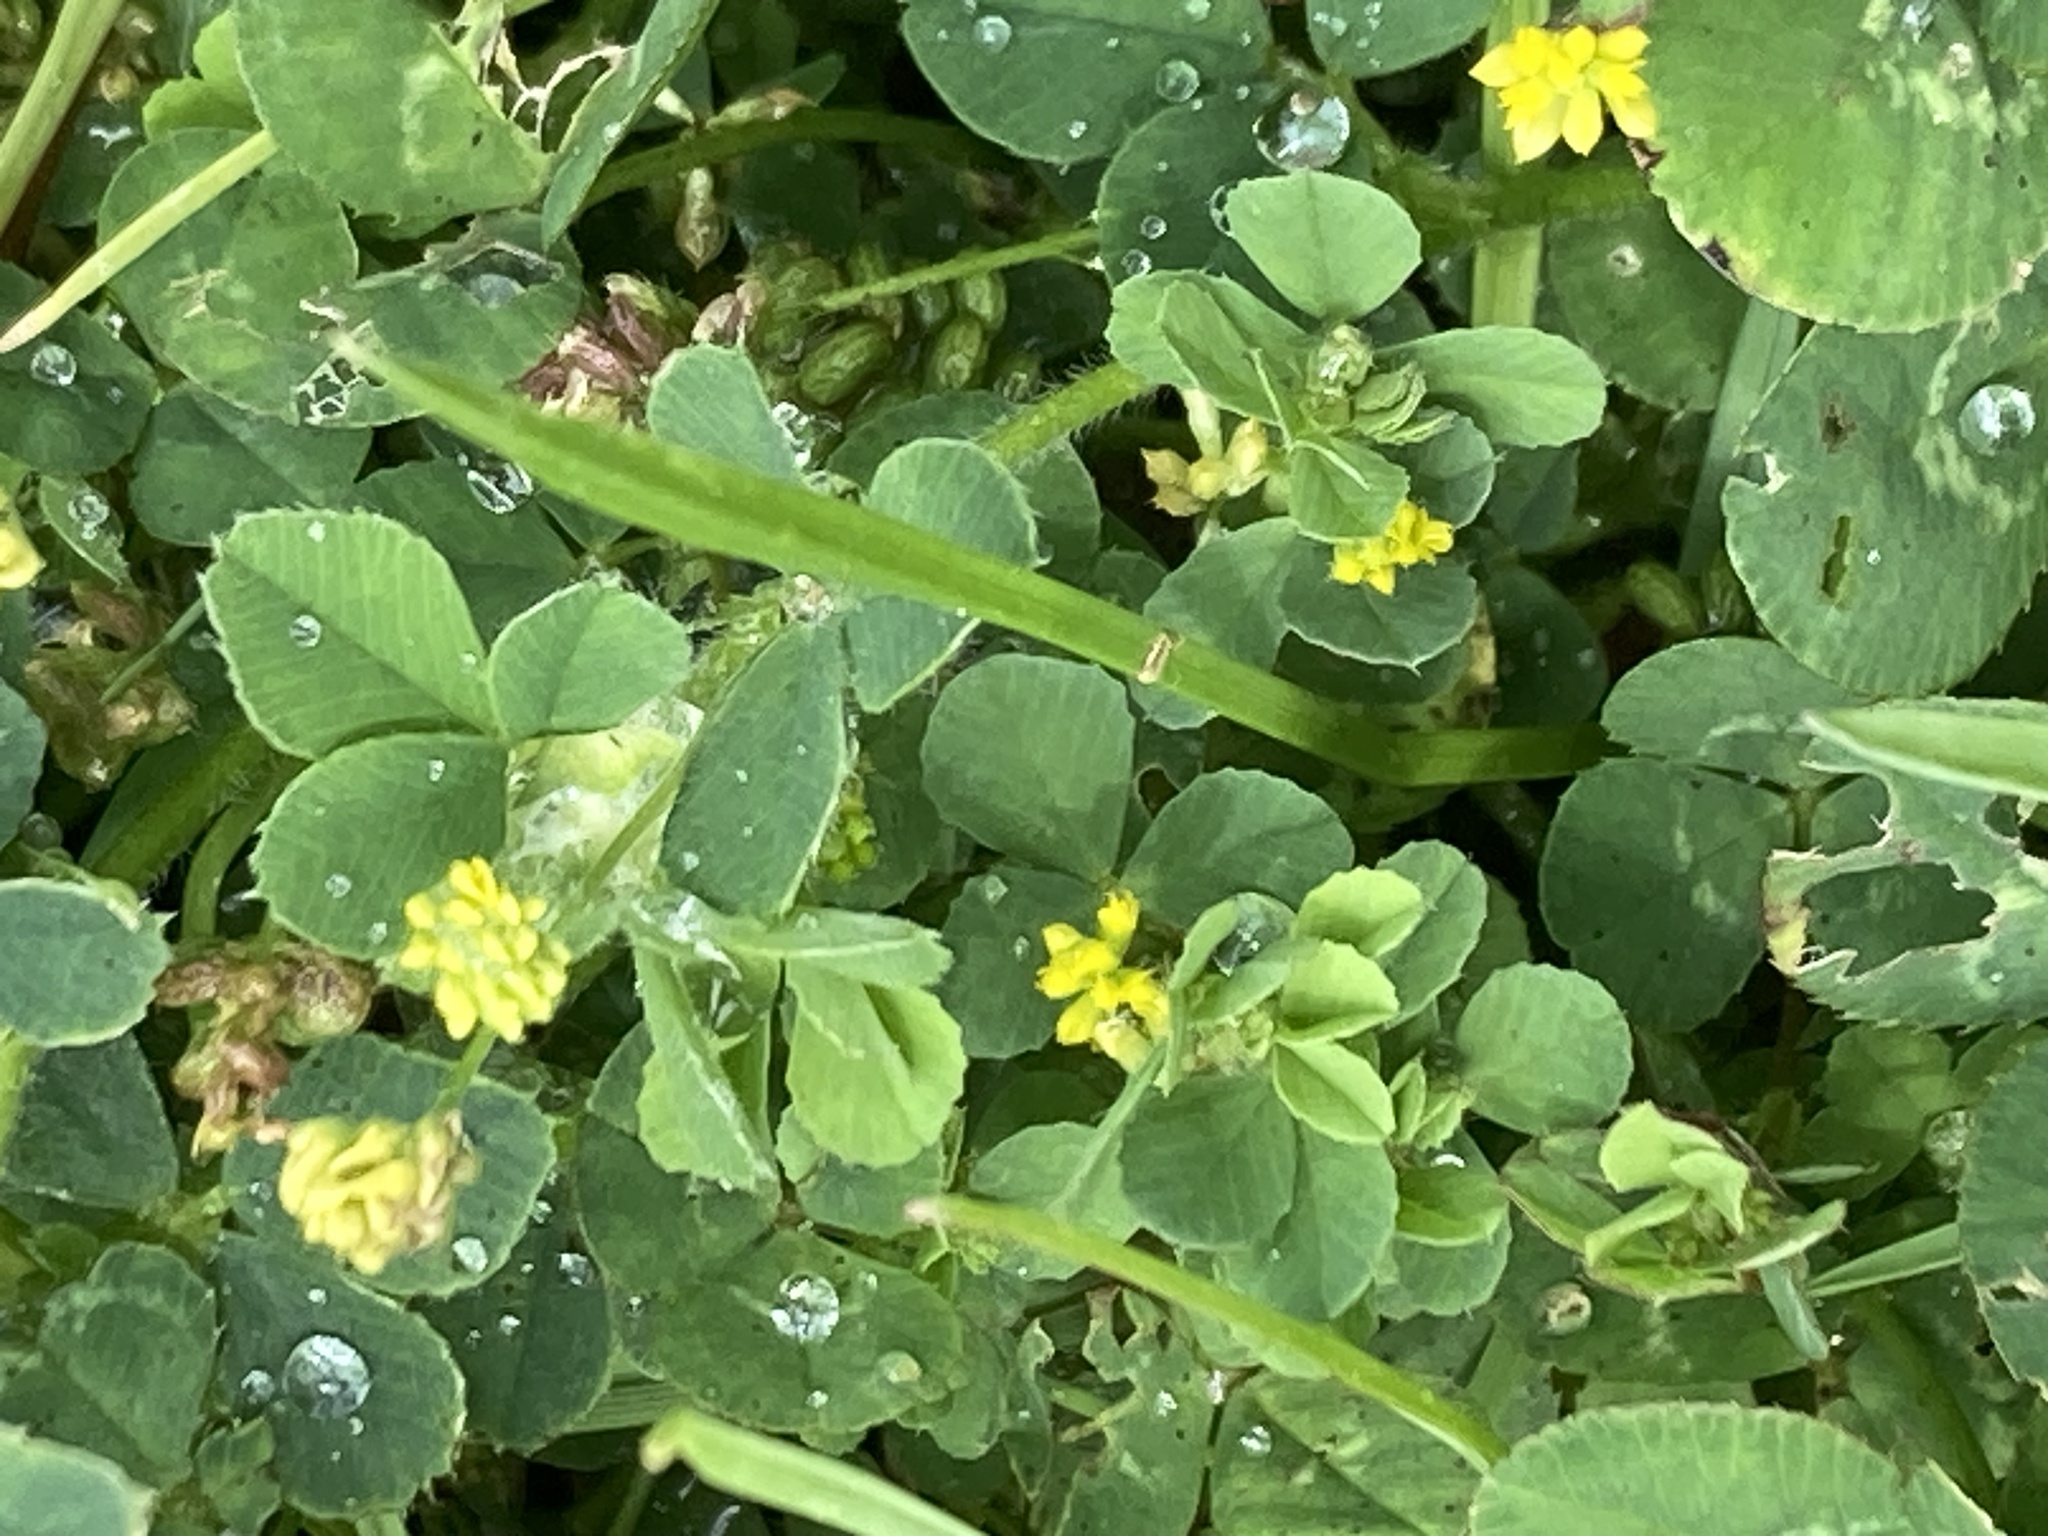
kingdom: Plantae
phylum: Tracheophyta
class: Magnoliopsida
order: Fabales
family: Fabaceae
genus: Trifolium
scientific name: Trifolium dubium
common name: Suckling clover
